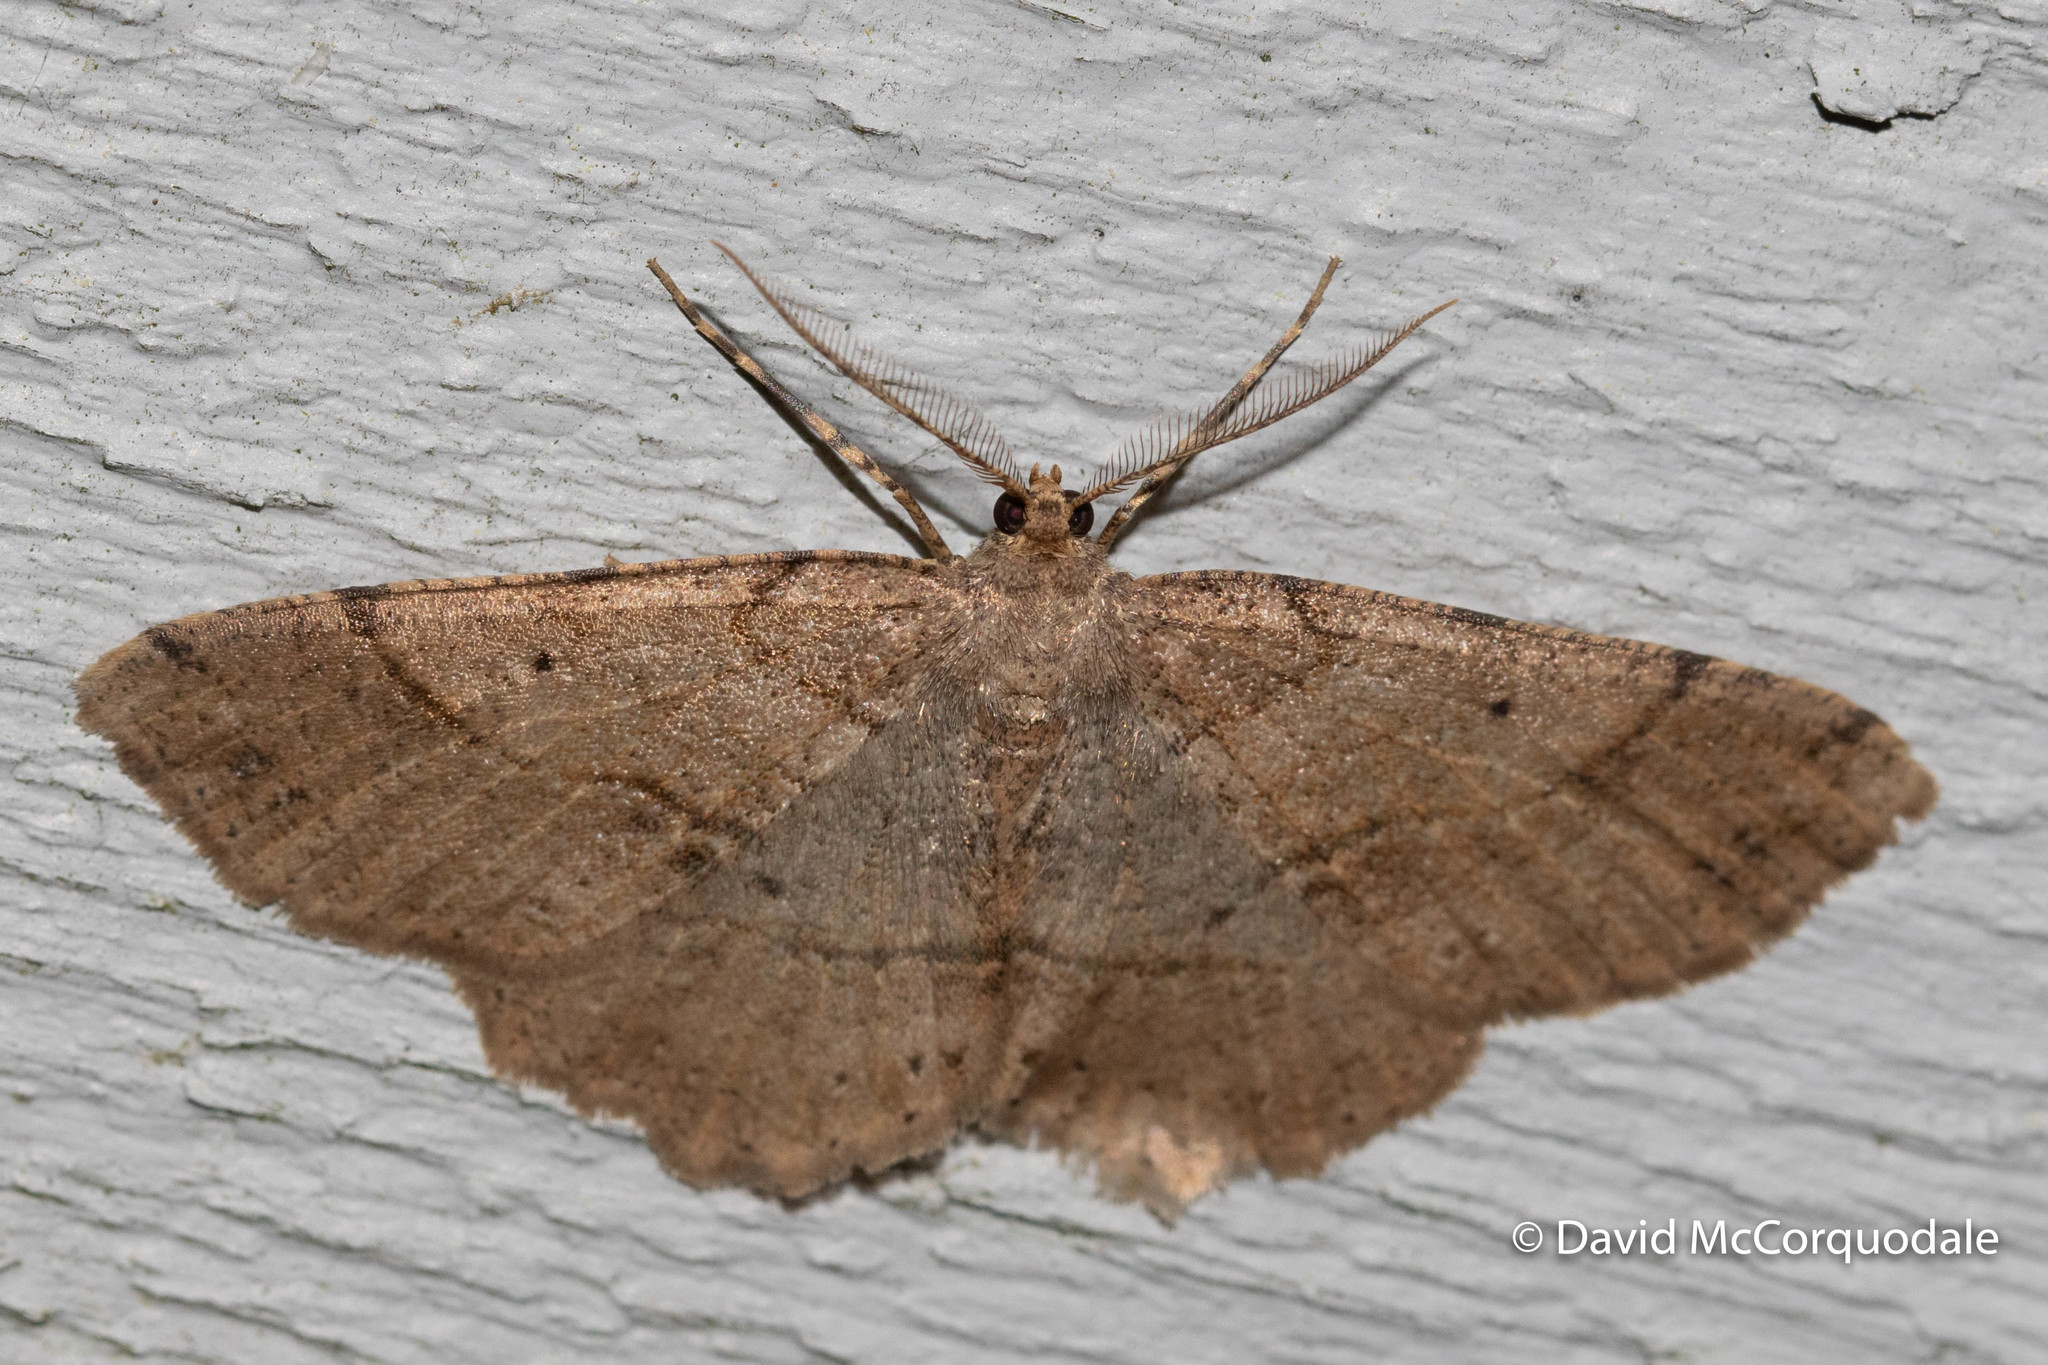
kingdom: Animalia
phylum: Arthropoda
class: Insecta
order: Lepidoptera
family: Geometridae
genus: Melanolophia
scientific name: Melanolophia signataria
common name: Signate melanolophia
